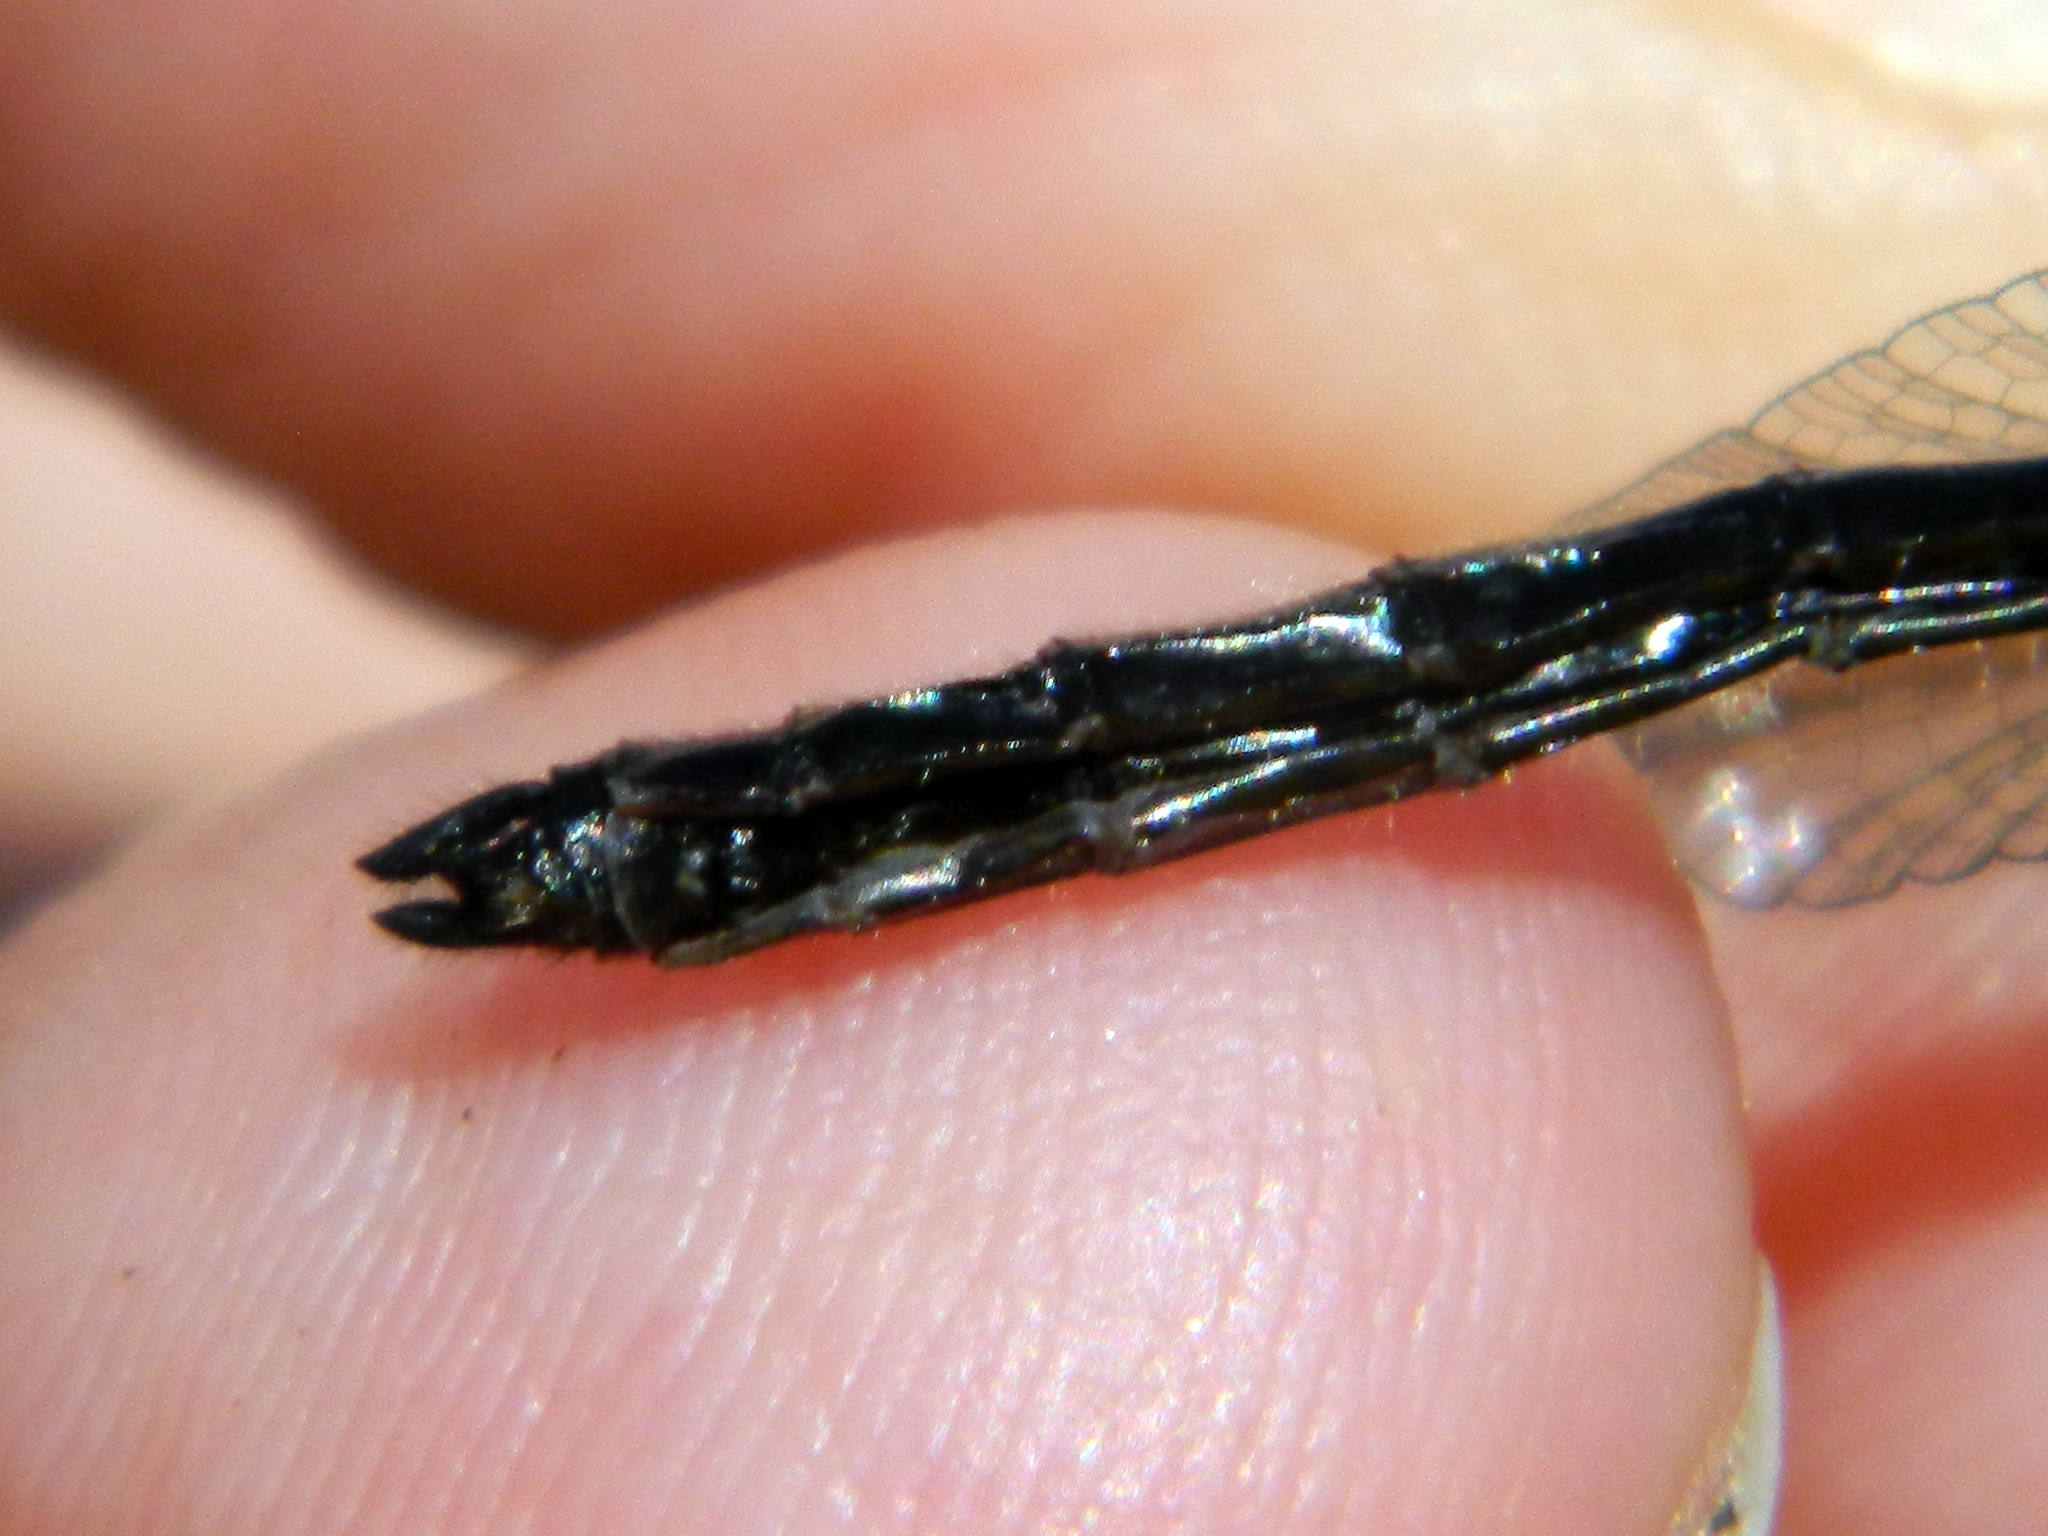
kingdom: Animalia
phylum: Arthropoda
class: Insecta
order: Odonata
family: Libellulidae
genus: Leucorrhinia
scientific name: Leucorrhinia glacialis
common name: Crimson-ringed whiteface
